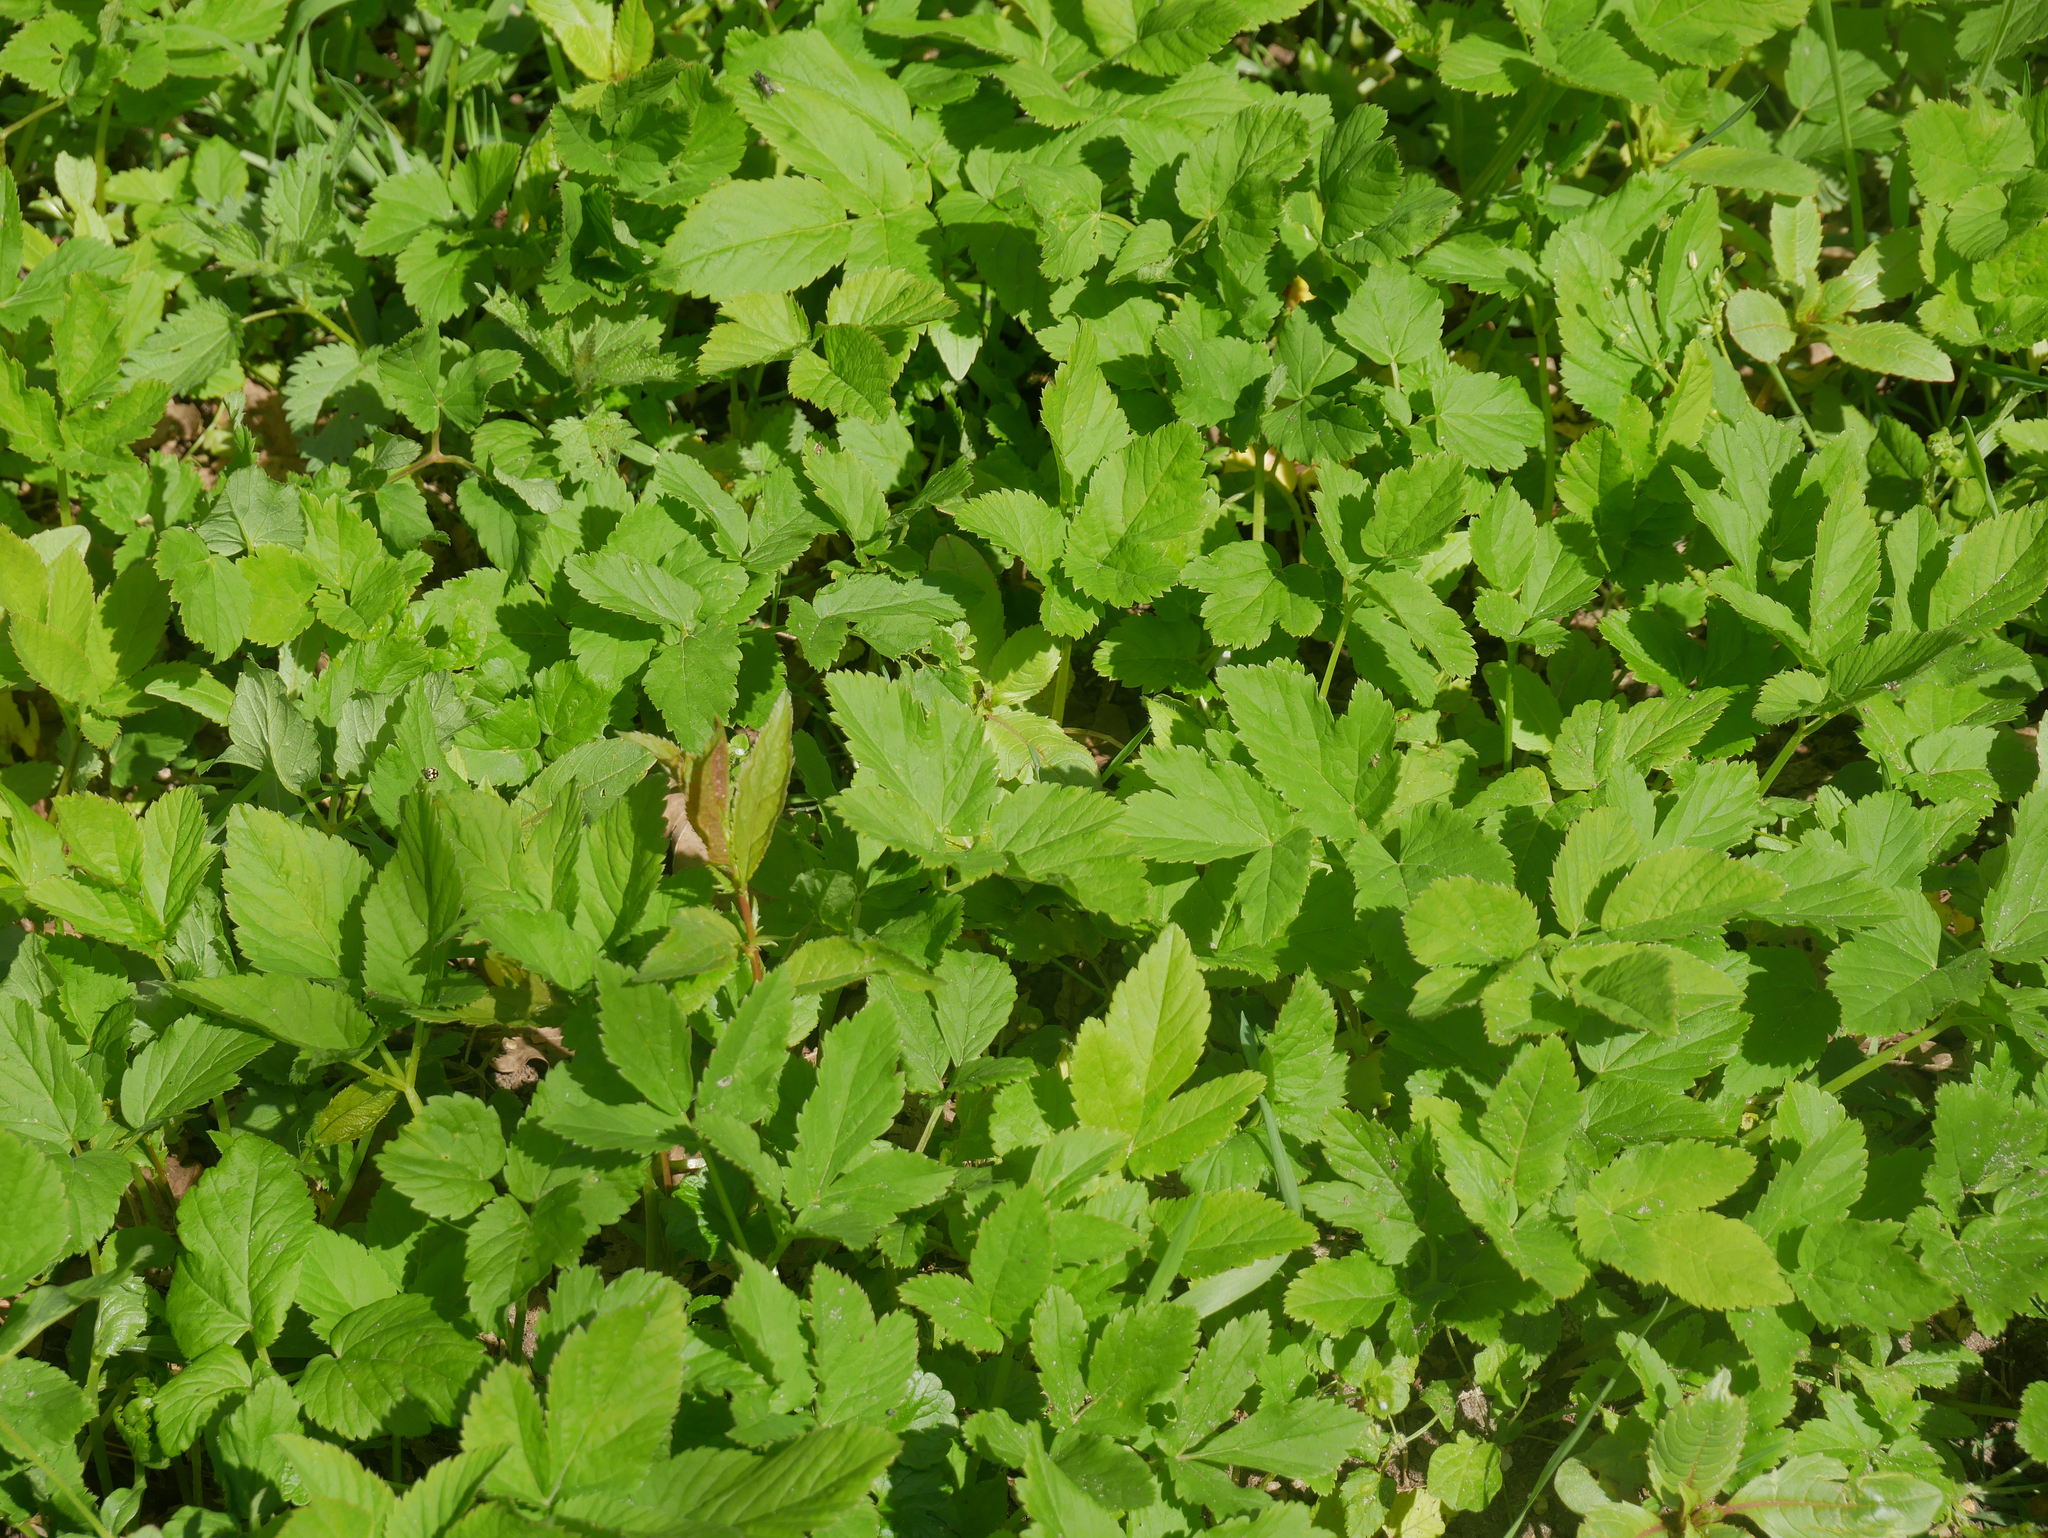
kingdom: Plantae
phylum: Tracheophyta
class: Magnoliopsida
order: Apiales
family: Apiaceae
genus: Aegopodium
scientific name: Aegopodium podagraria
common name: Ground-elder
